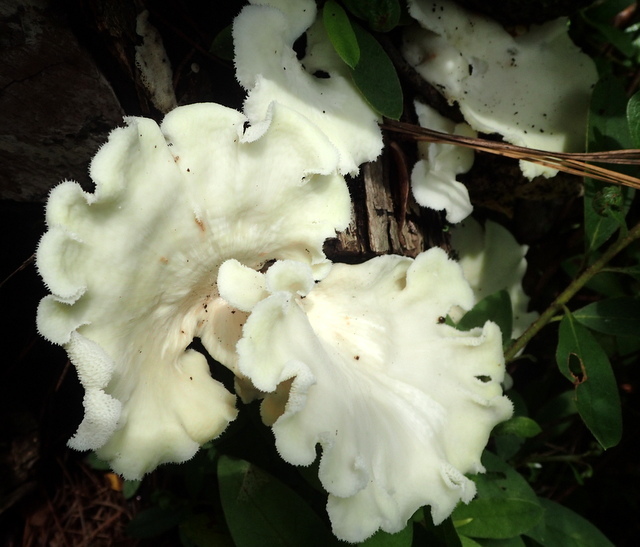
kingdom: Fungi
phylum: Basidiomycota
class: Agaricomycetes
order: Polyporales
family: Polyporaceae
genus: Favolus
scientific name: Favolus tenuiculus
